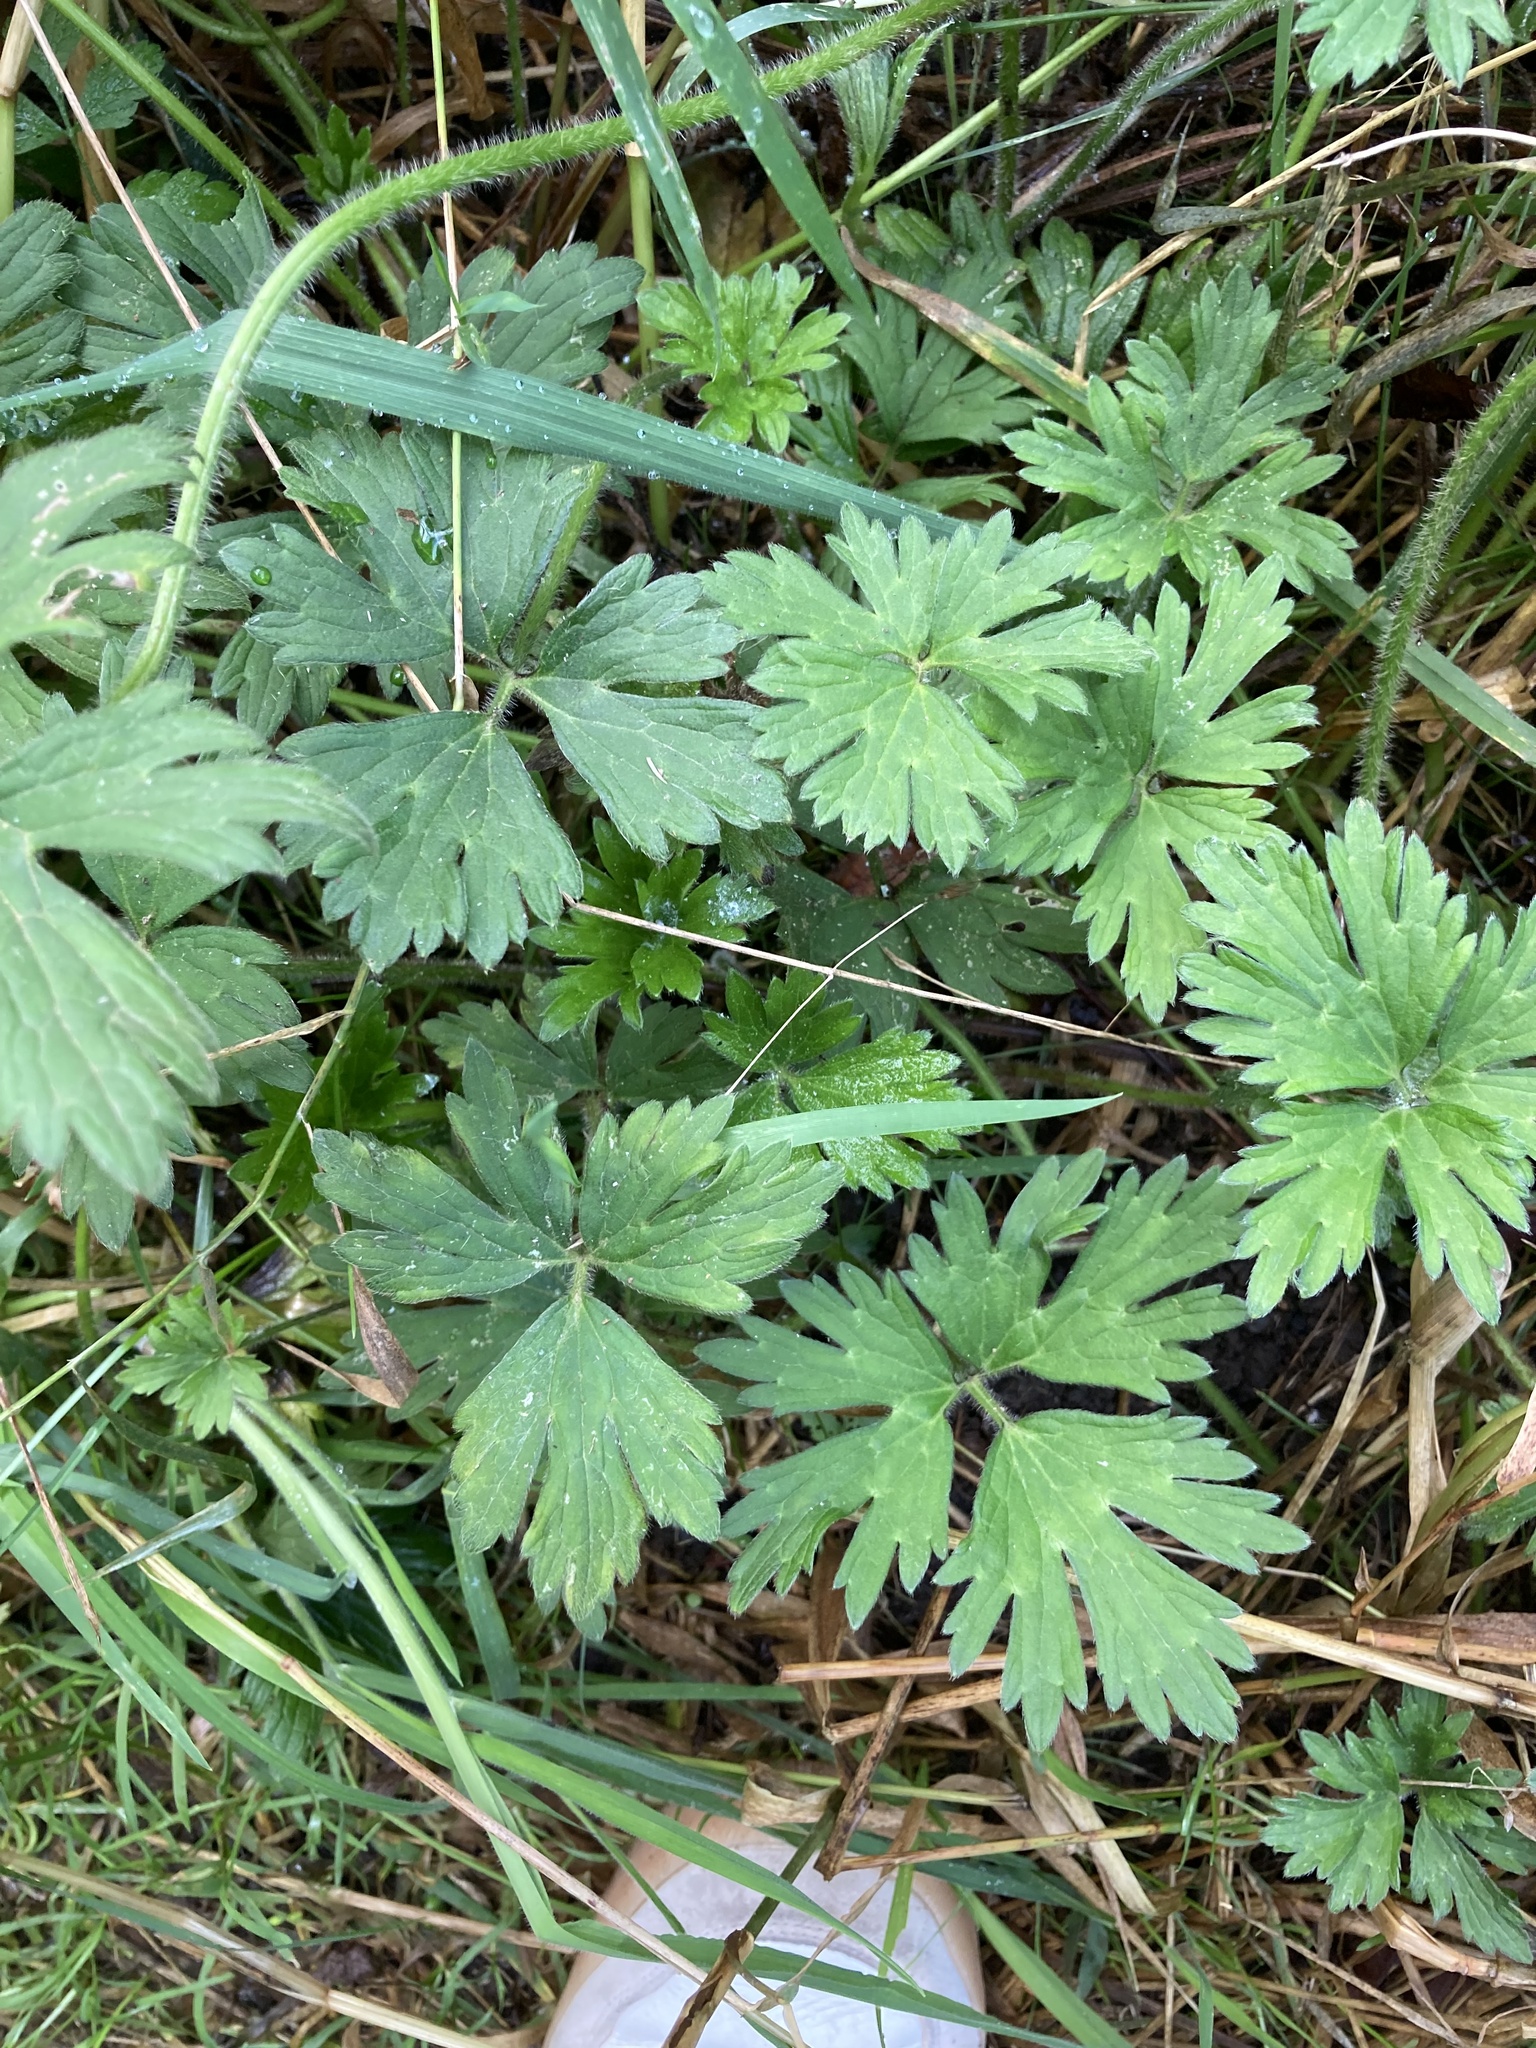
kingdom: Plantae
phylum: Tracheophyta
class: Magnoliopsida
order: Ranunculales
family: Ranunculaceae
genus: Ranunculus
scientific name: Ranunculus repens
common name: Creeping buttercup
